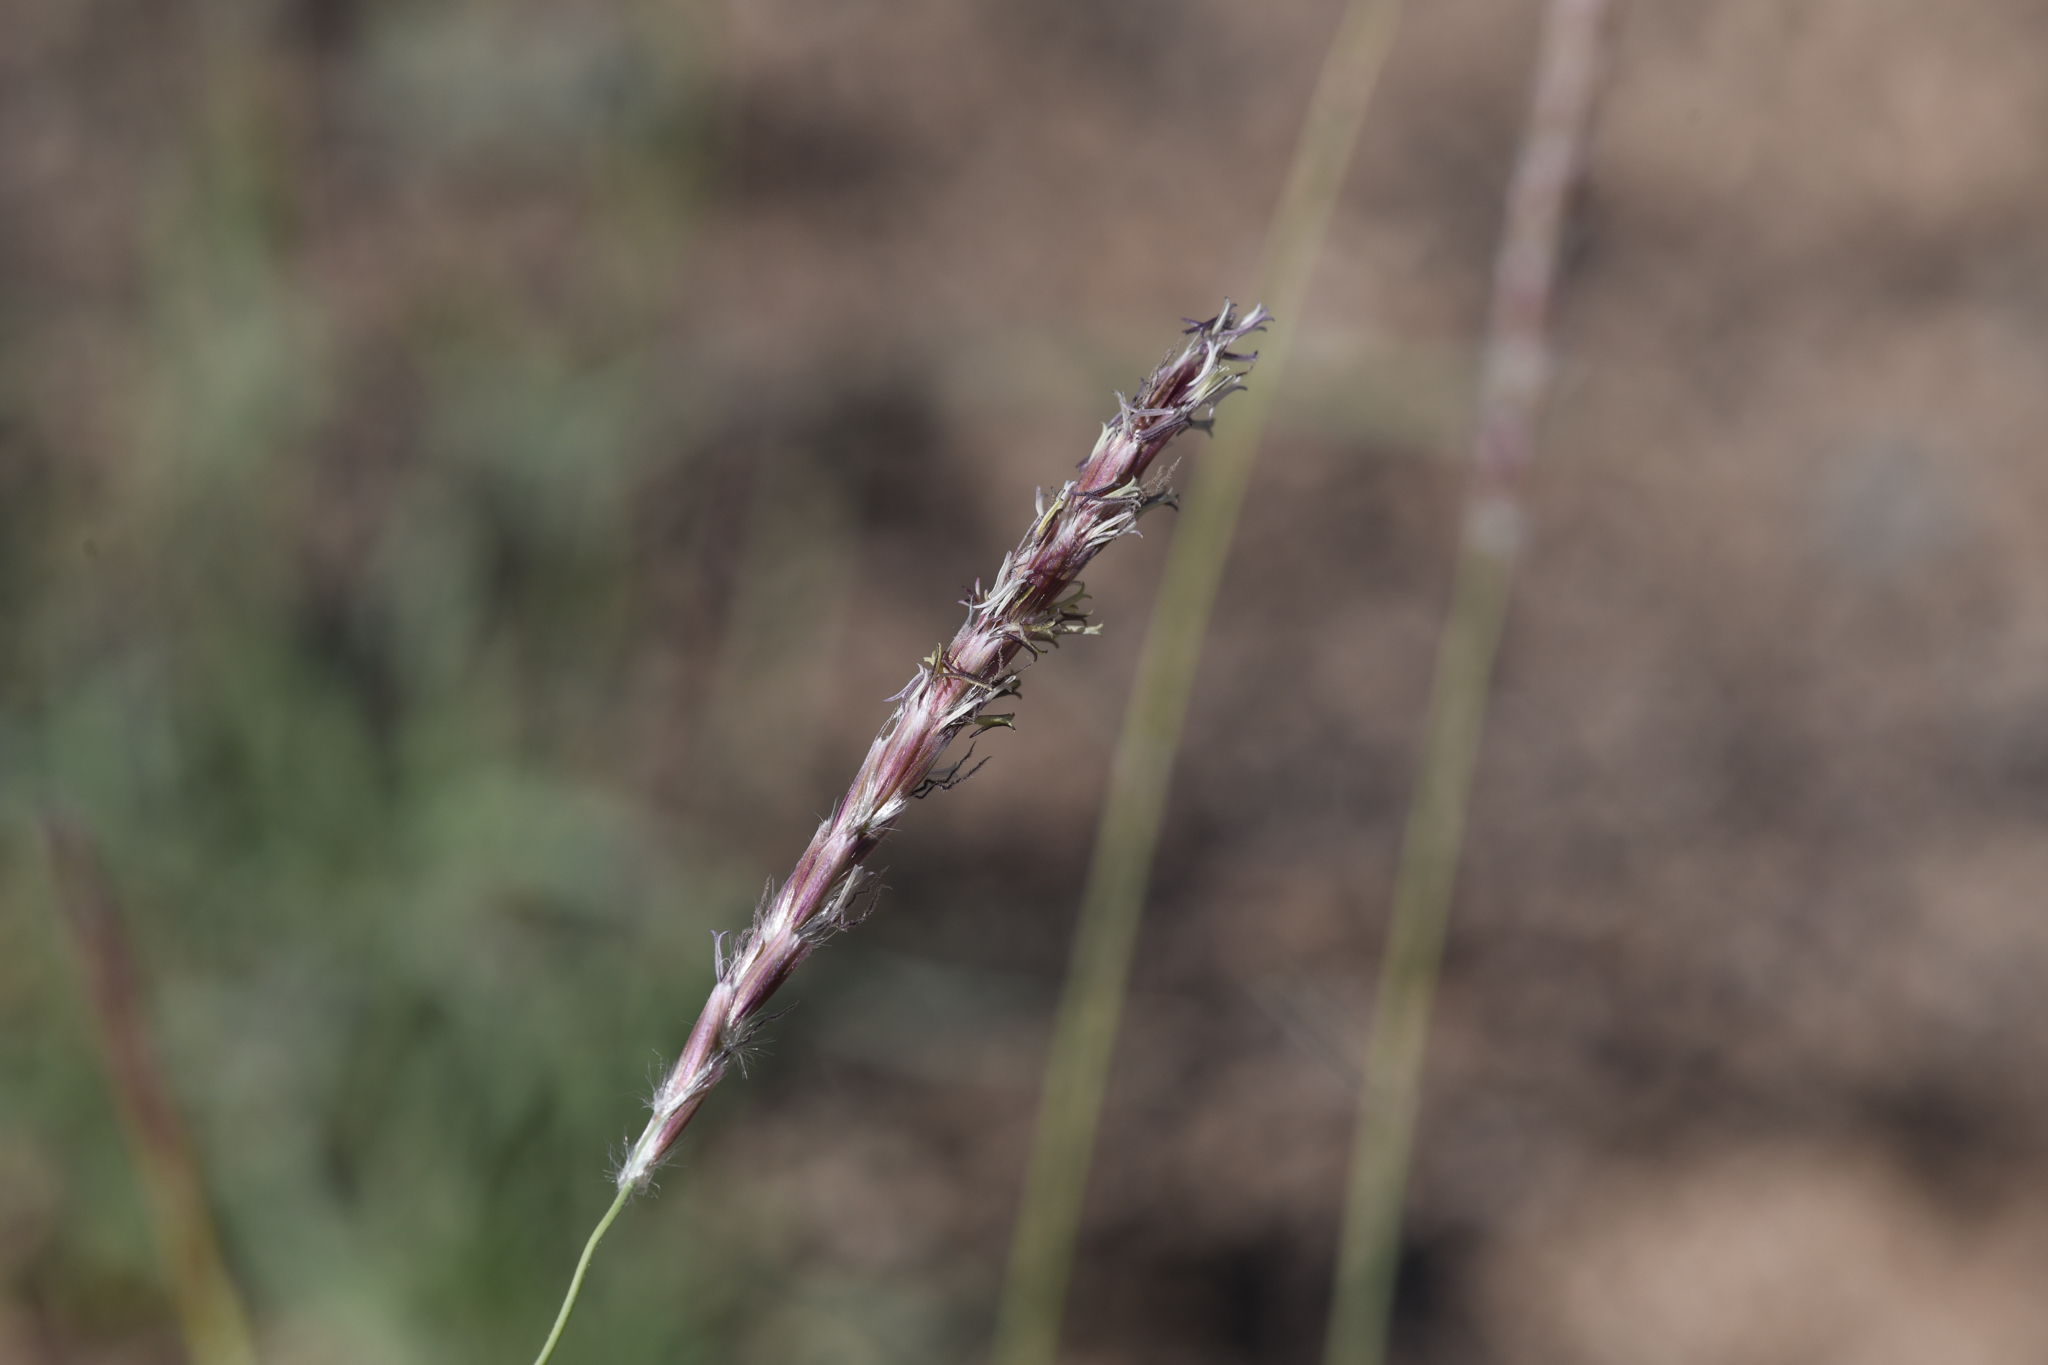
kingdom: Plantae
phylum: Tracheophyta
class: Liliopsida
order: Poales
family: Poaceae
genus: Hilaria
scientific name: Hilaria jamesii
